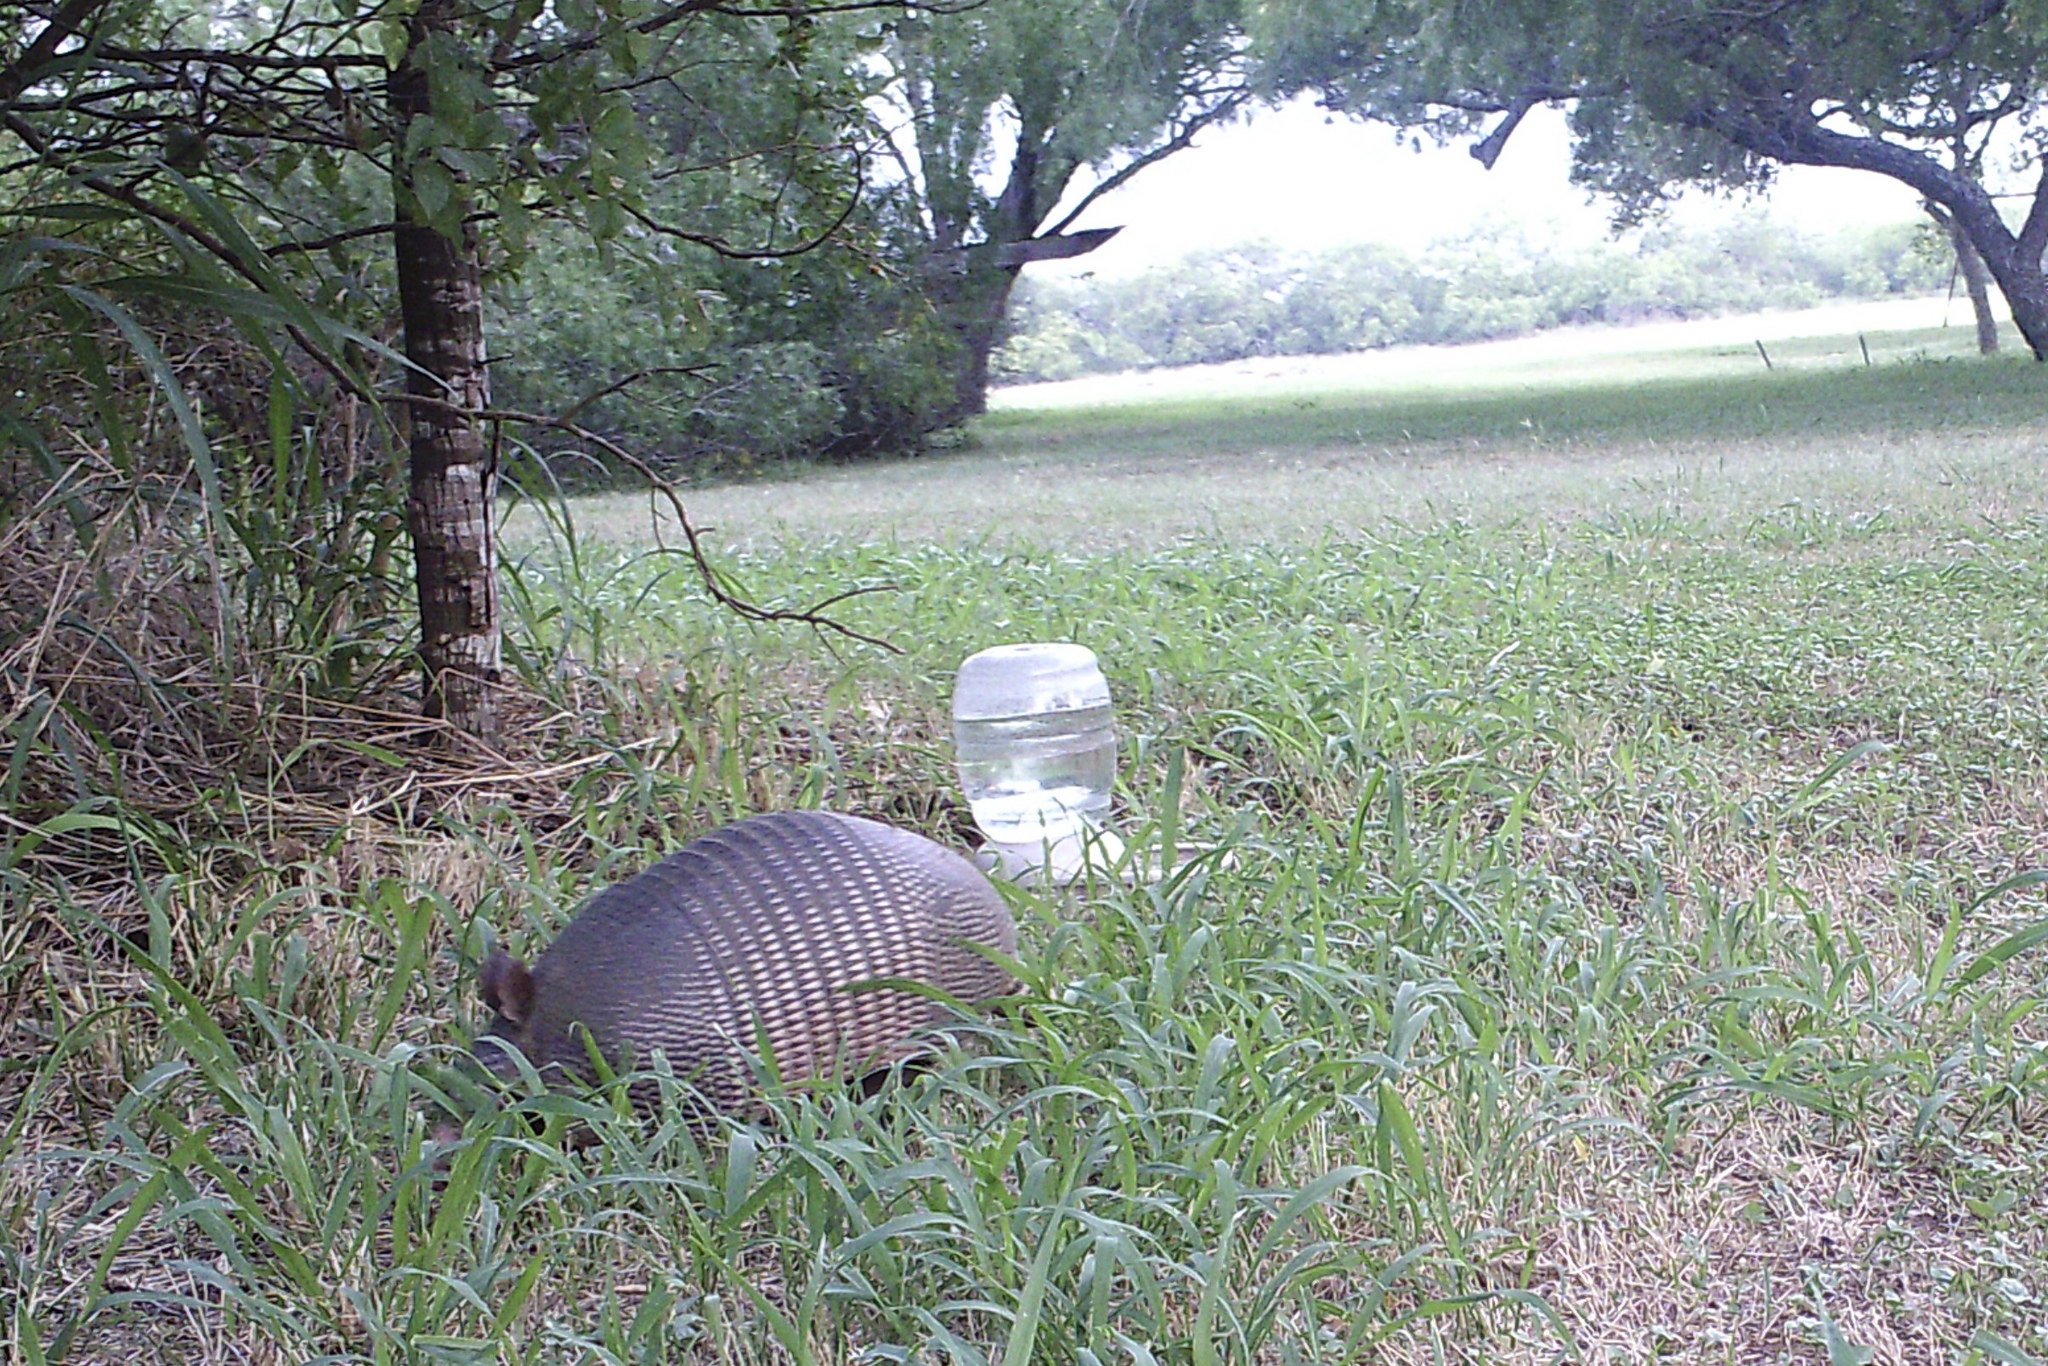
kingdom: Animalia
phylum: Chordata
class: Mammalia
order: Cingulata
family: Dasypodidae
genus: Dasypus
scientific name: Dasypus novemcinctus
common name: Nine-banded armadillo
